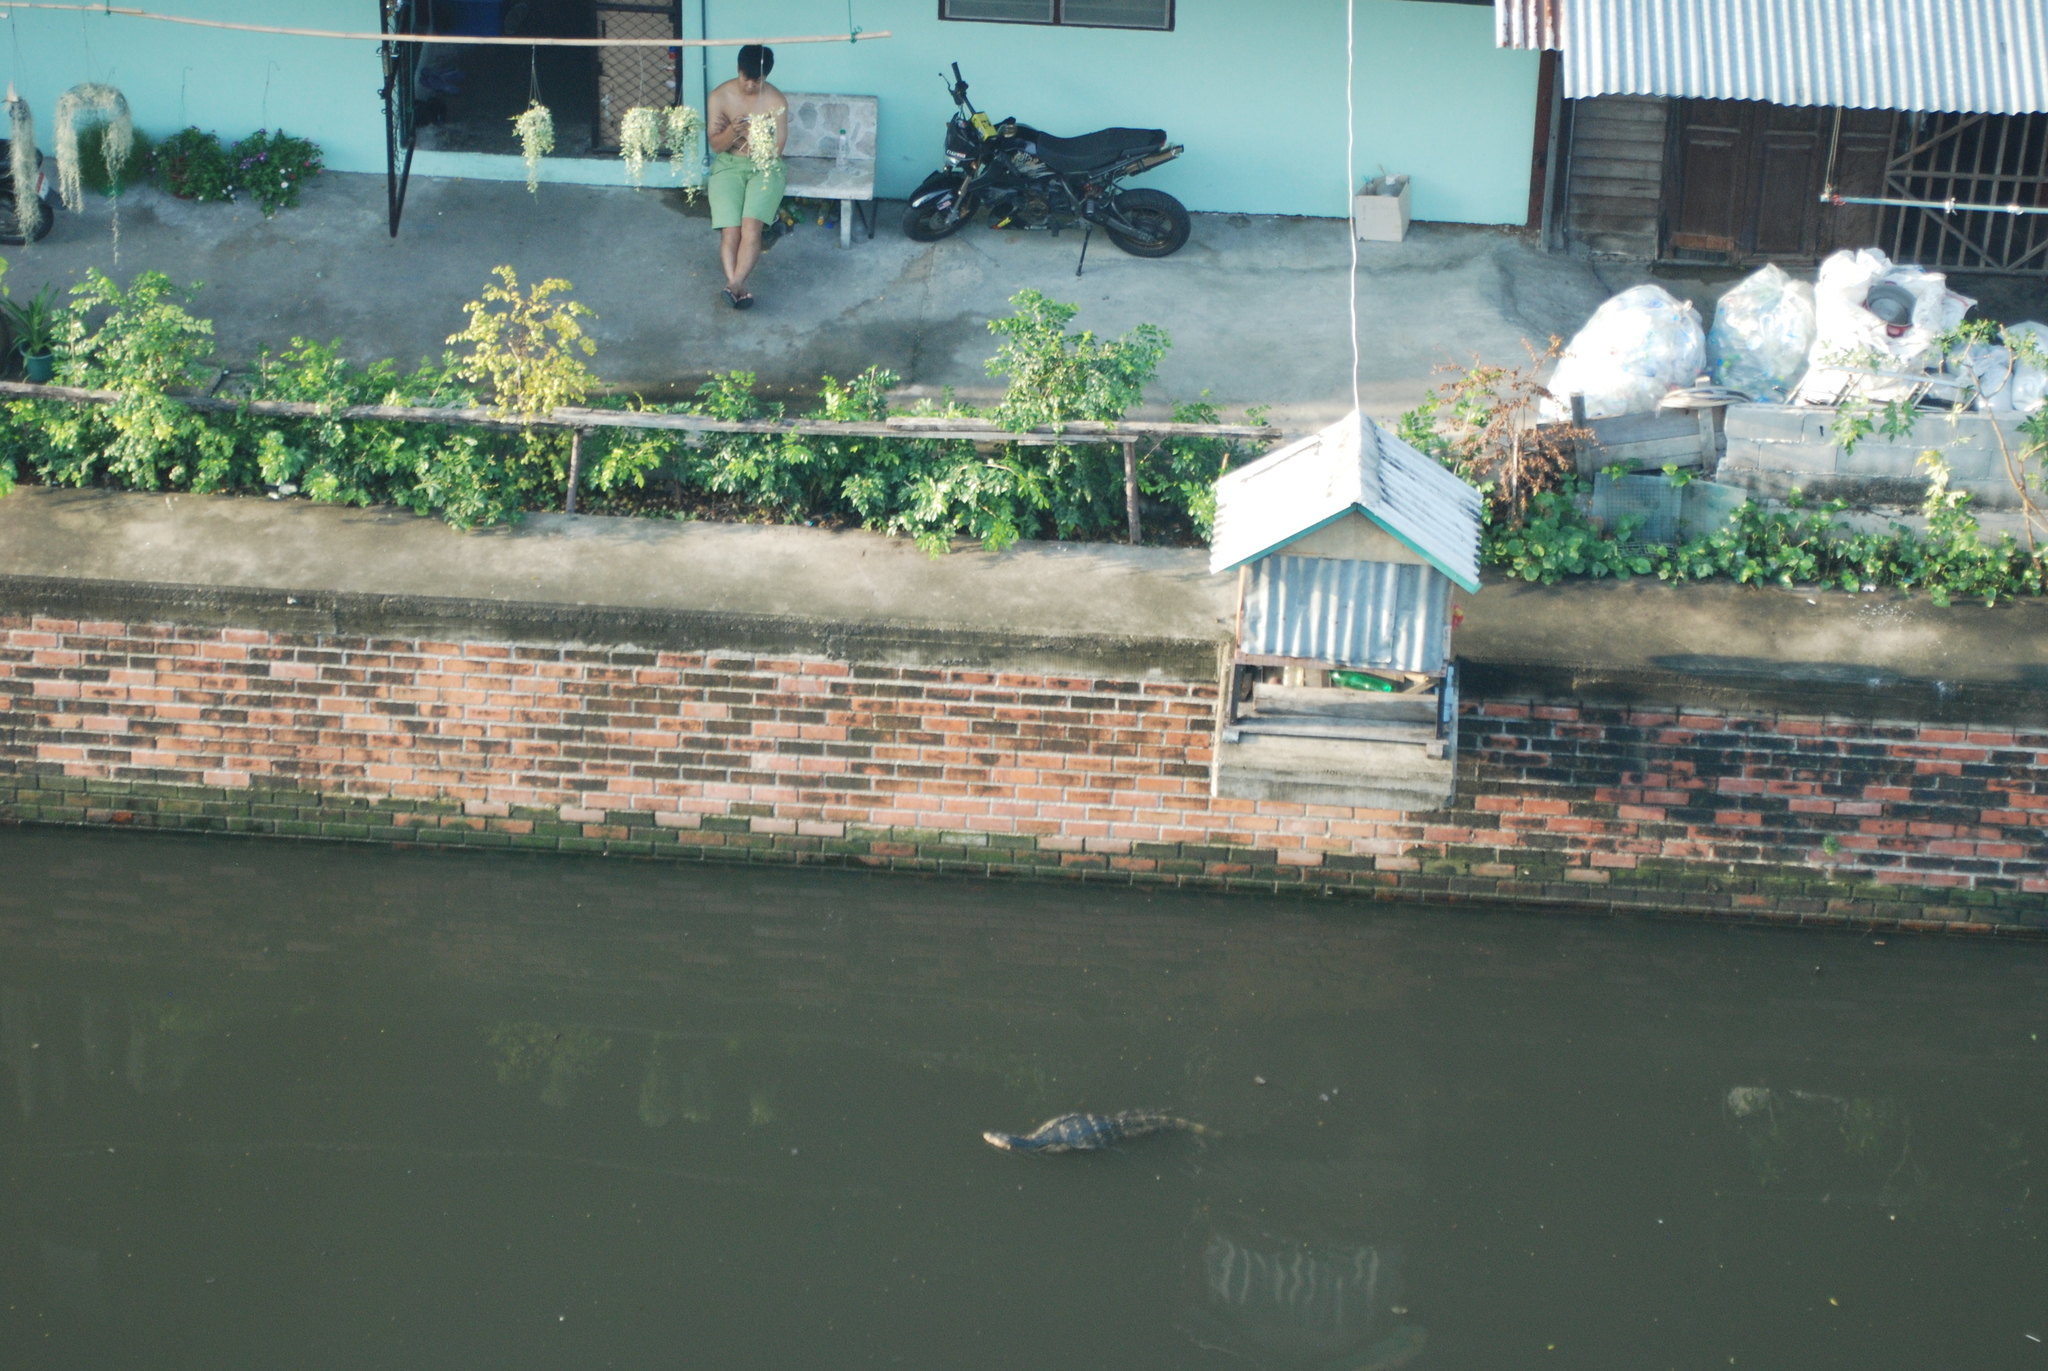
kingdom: Animalia
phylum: Chordata
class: Squamata
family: Varanidae
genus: Varanus
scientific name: Varanus salvator
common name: Common water monitor
